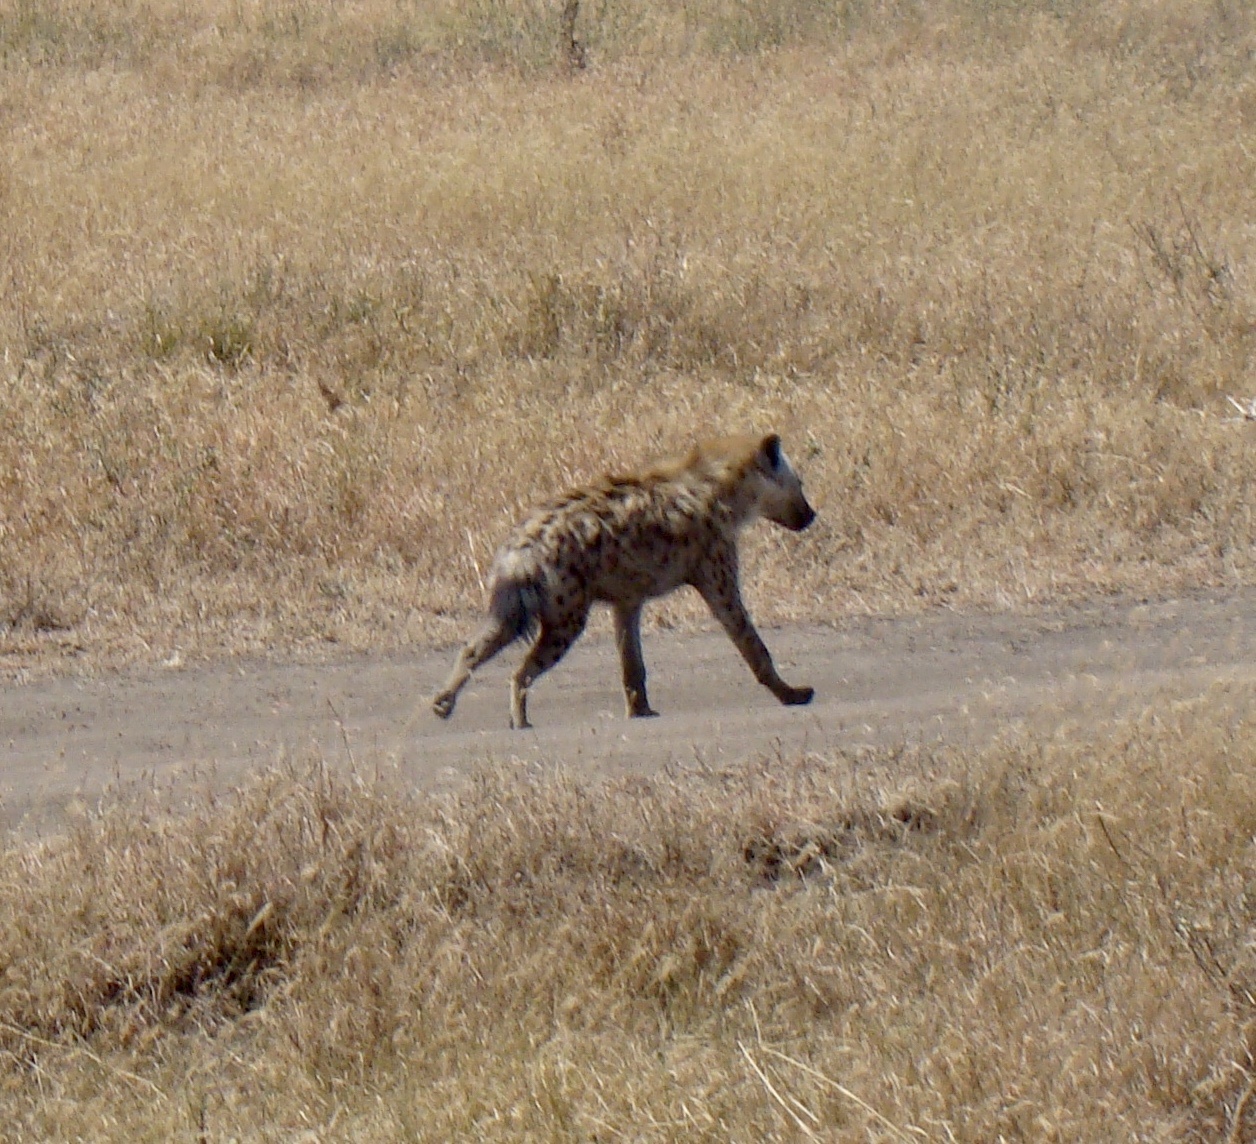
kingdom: Animalia
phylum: Chordata
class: Mammalia
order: Carnivora
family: Hyaenidae
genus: Crocuta
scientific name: Crocuta crocuta
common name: Spotted hyaena
